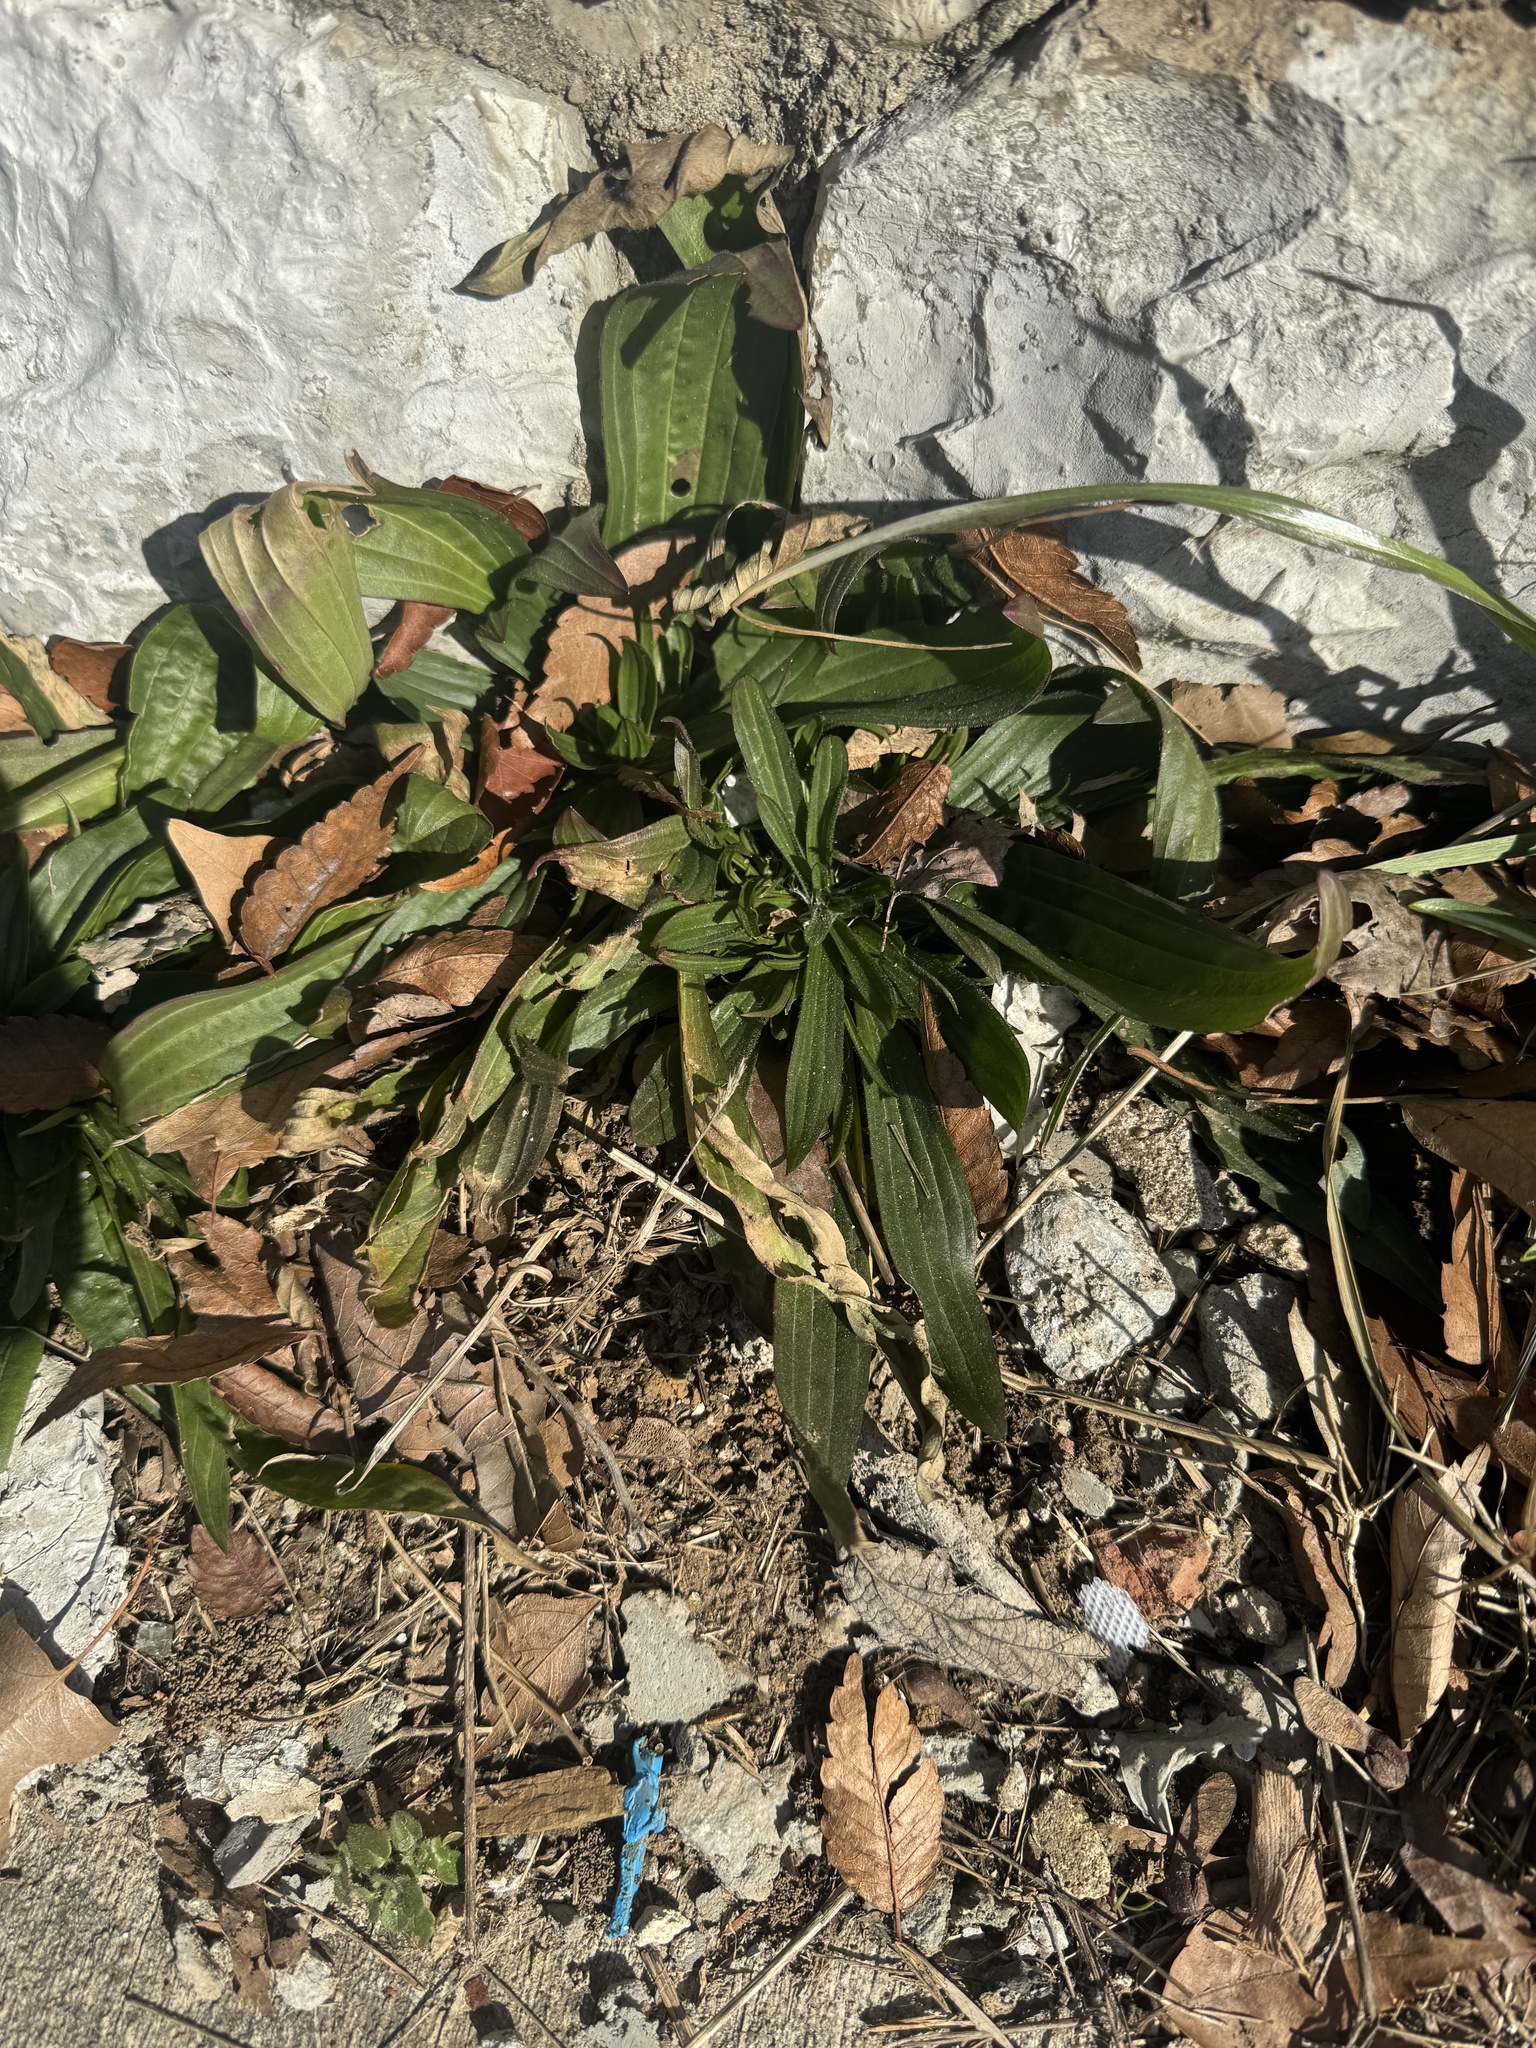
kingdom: Plantae
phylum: Tracheophyta
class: Magnoliopsida
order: Lamiales
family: Plantaginaceae
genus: Plantago
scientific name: Plantago lanceolata
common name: Ribwort plantain
